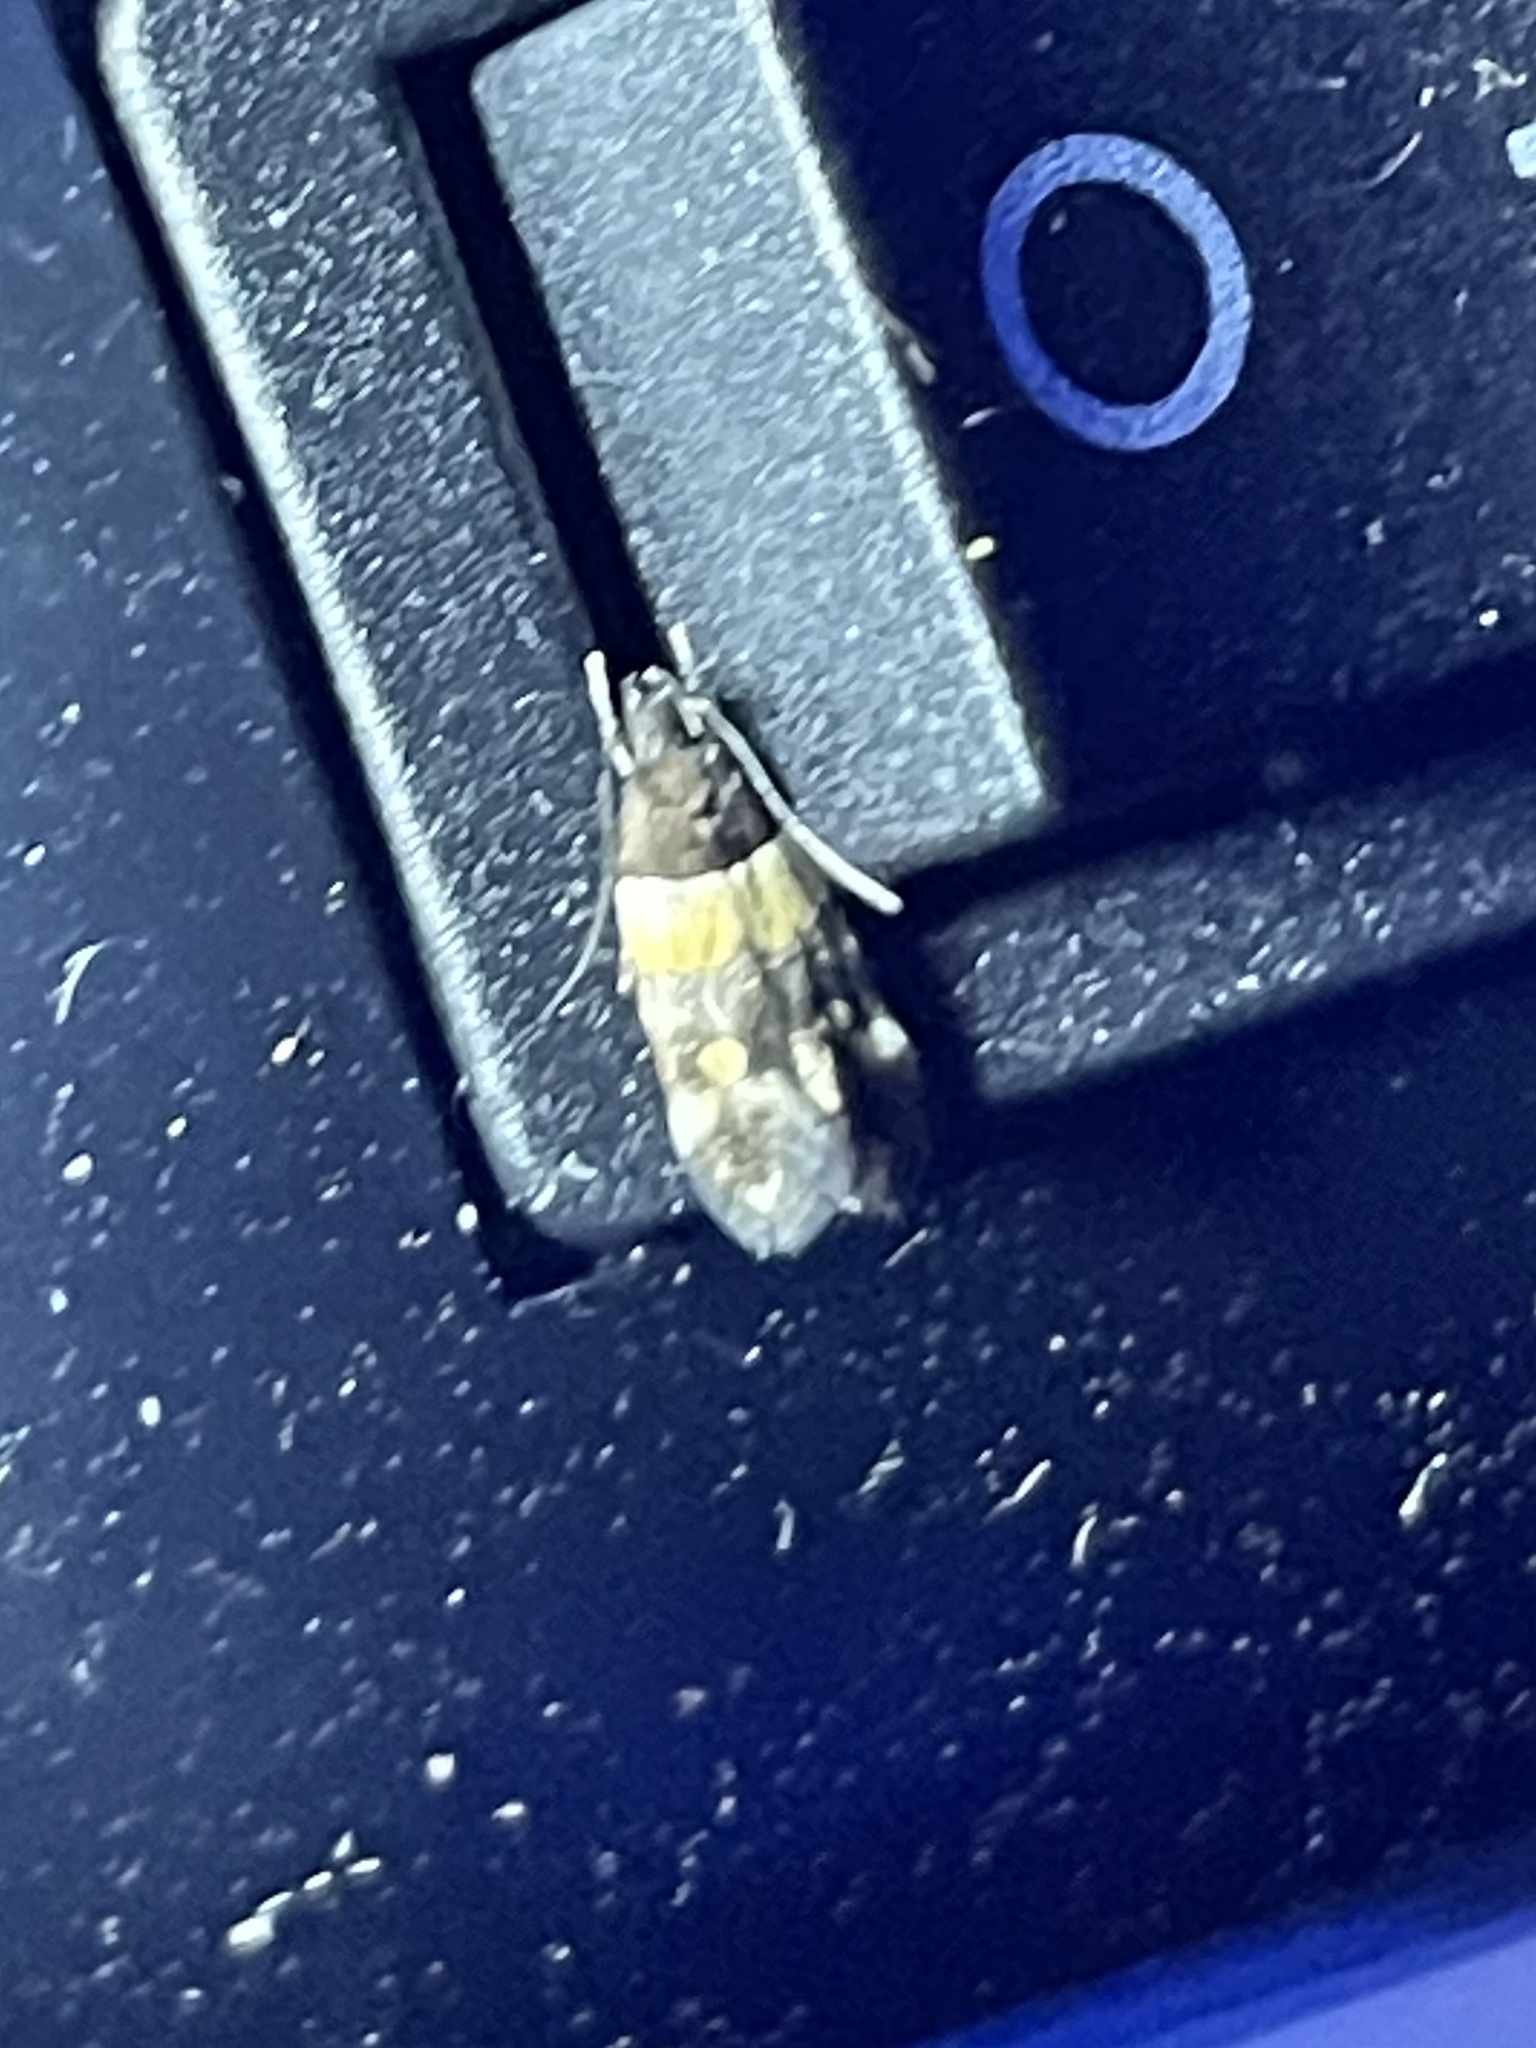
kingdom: Animalia
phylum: Arthropoda
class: Insecta
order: Lepidoptera
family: Momphidae
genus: Triclonella
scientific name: Triclonella determinatella
